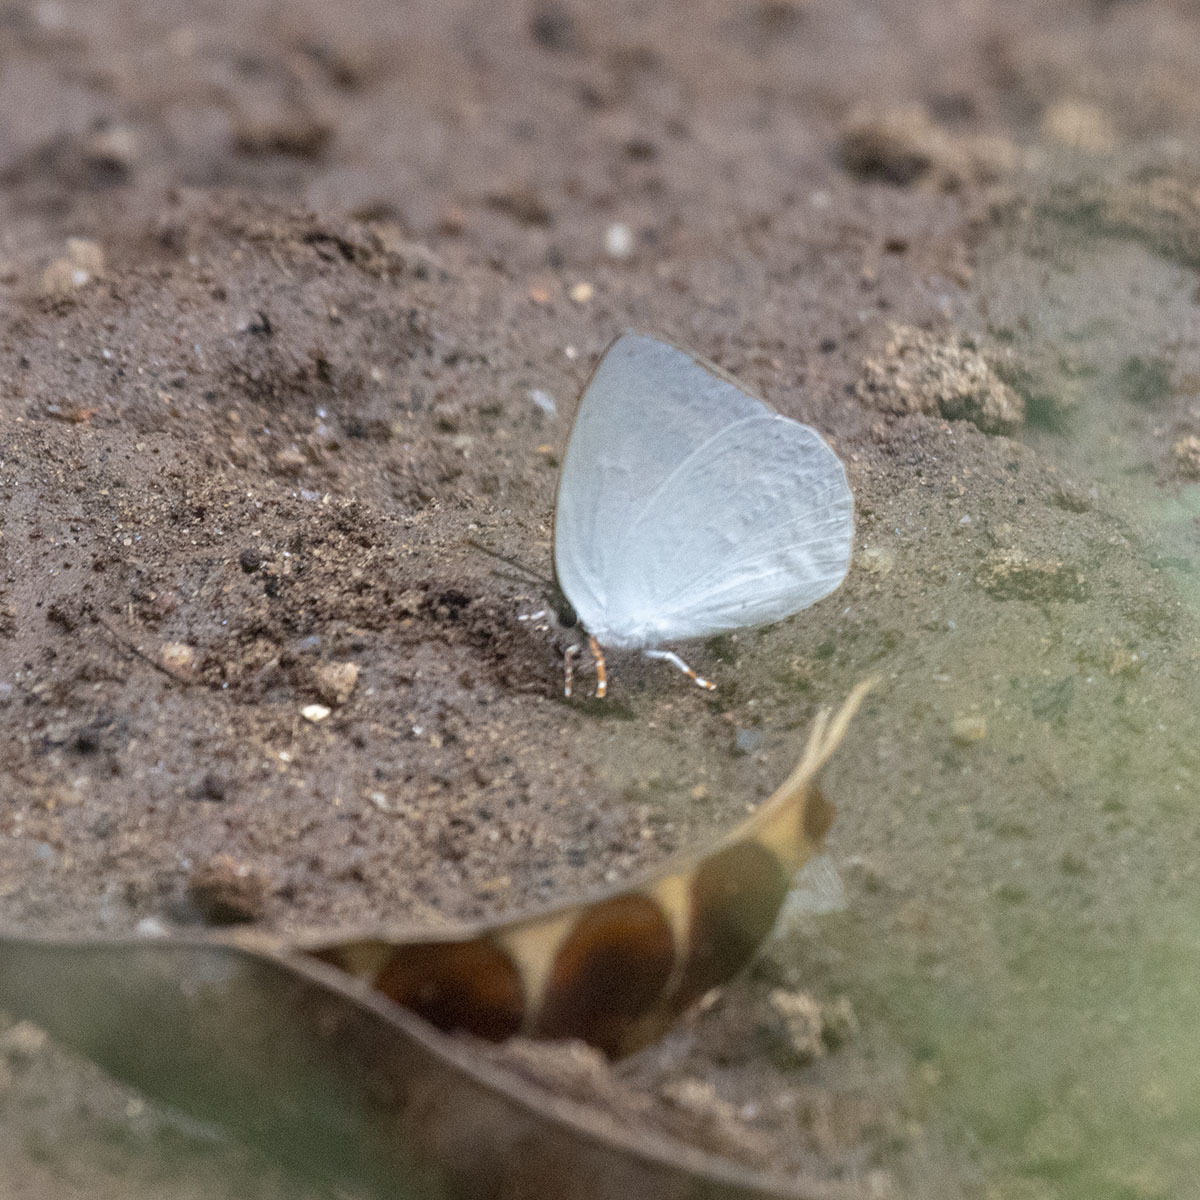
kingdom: Animalia
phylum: Arthropoda
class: Insecta
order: Lepidoptera
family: Lycaenidae
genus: Curetis
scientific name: Curetis thetis
